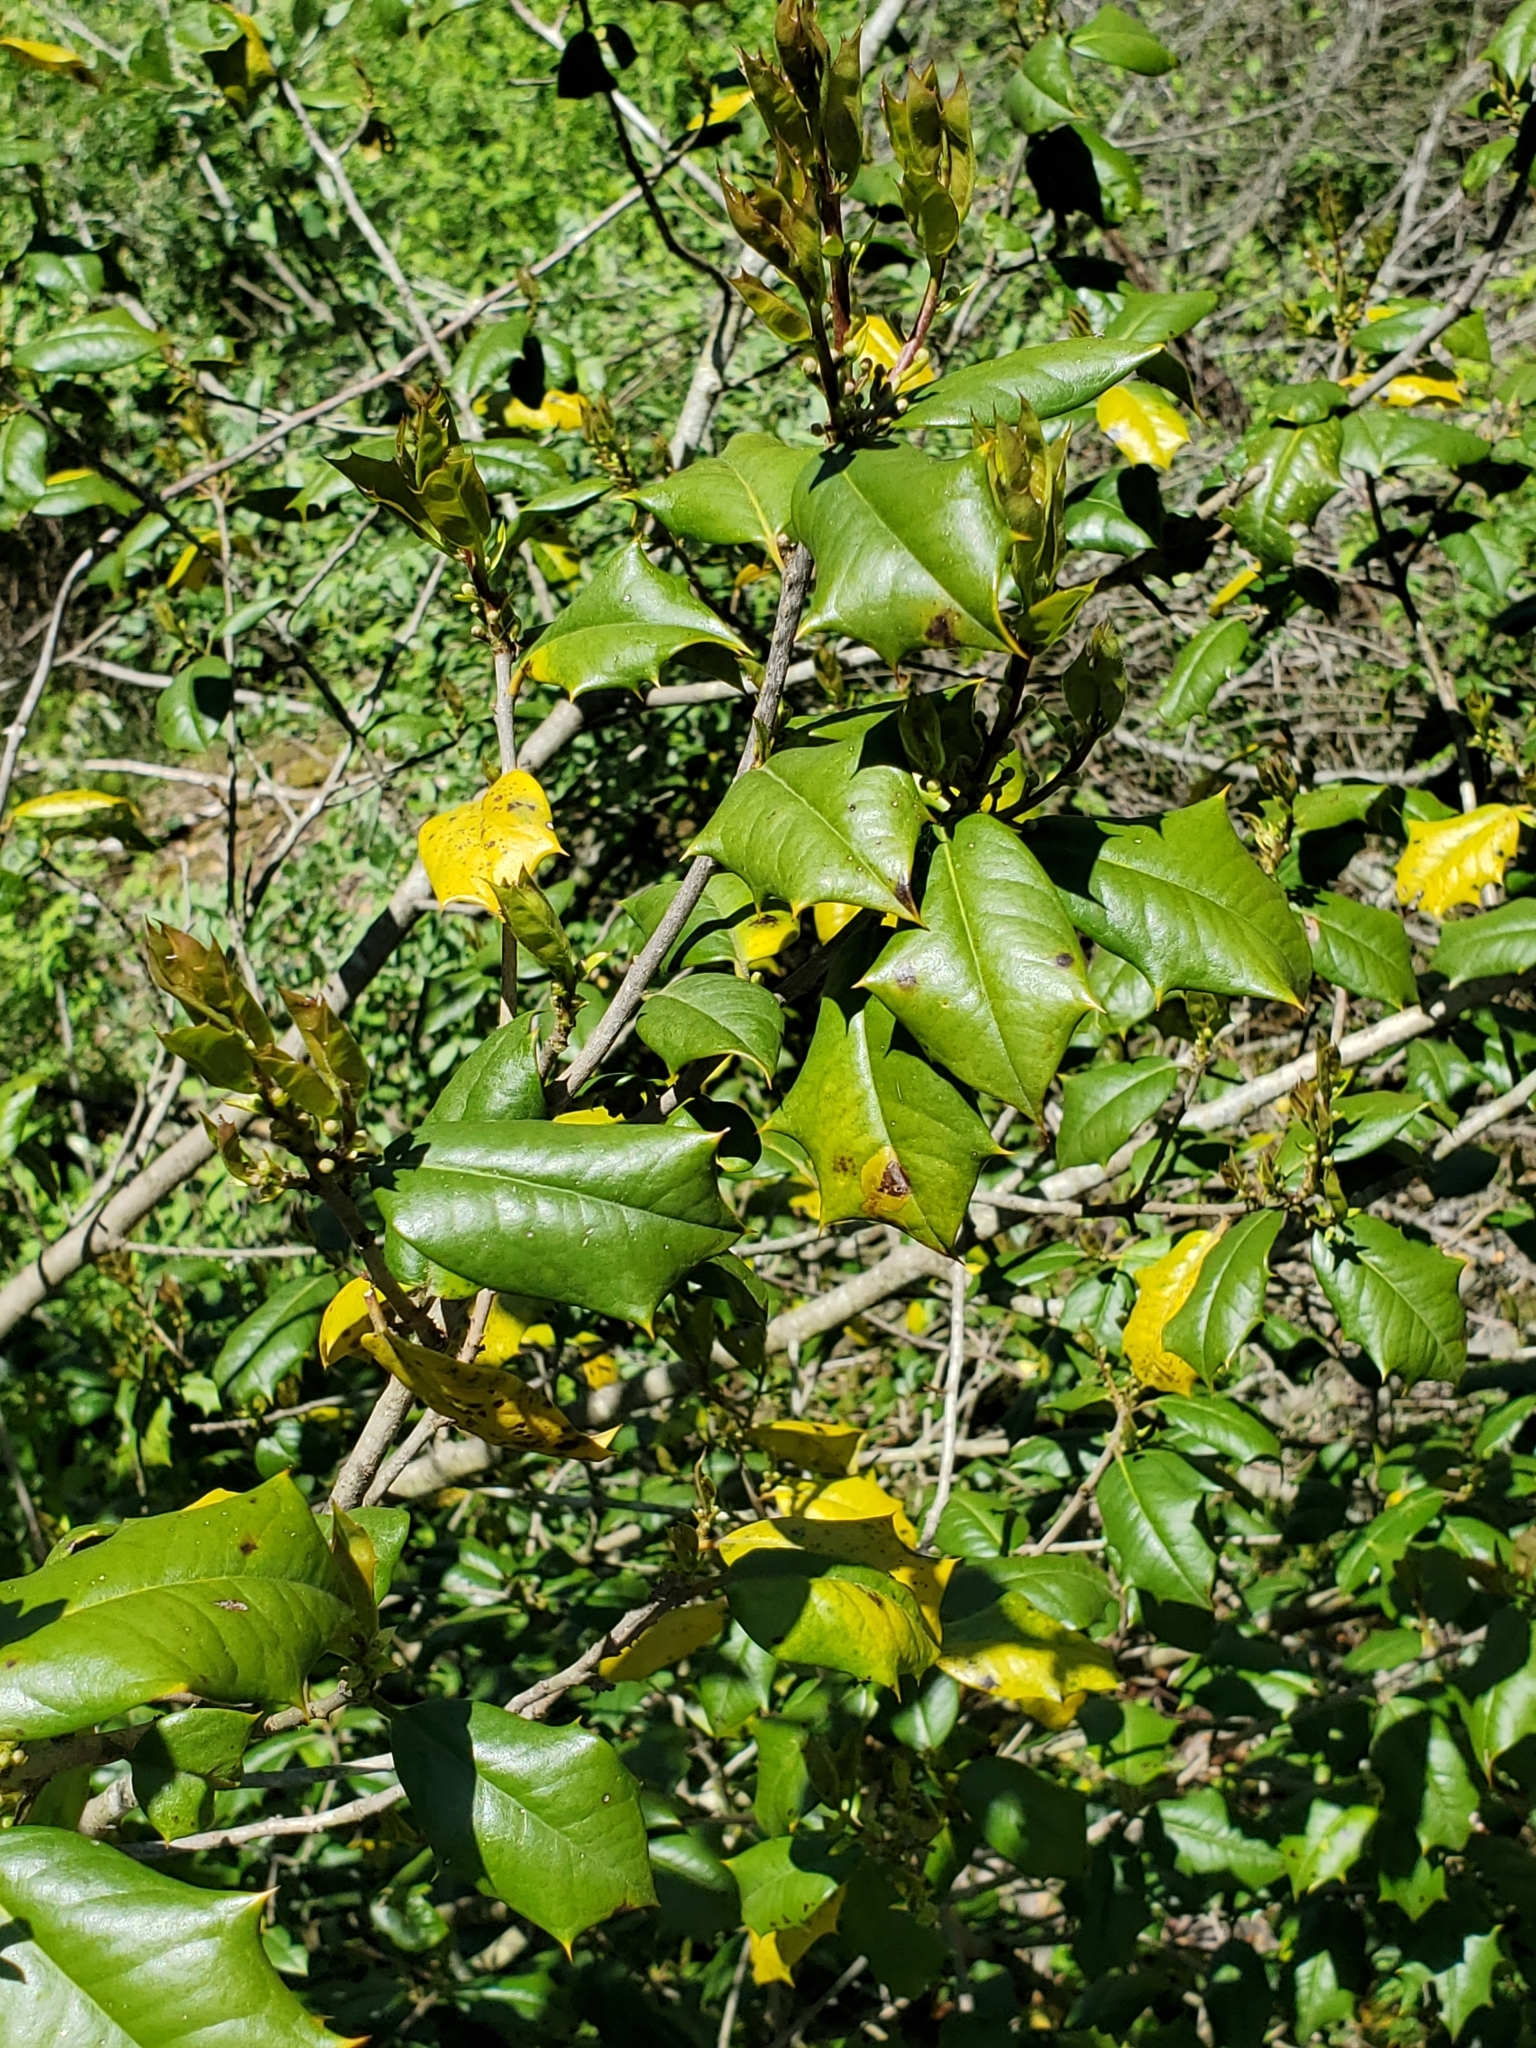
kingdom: Plantae
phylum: Tracheophyta
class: Magnoliopsida
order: Aquifoliales
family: Aquifoliaceae
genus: Ilex
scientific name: Ilex opaca
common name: American holly
